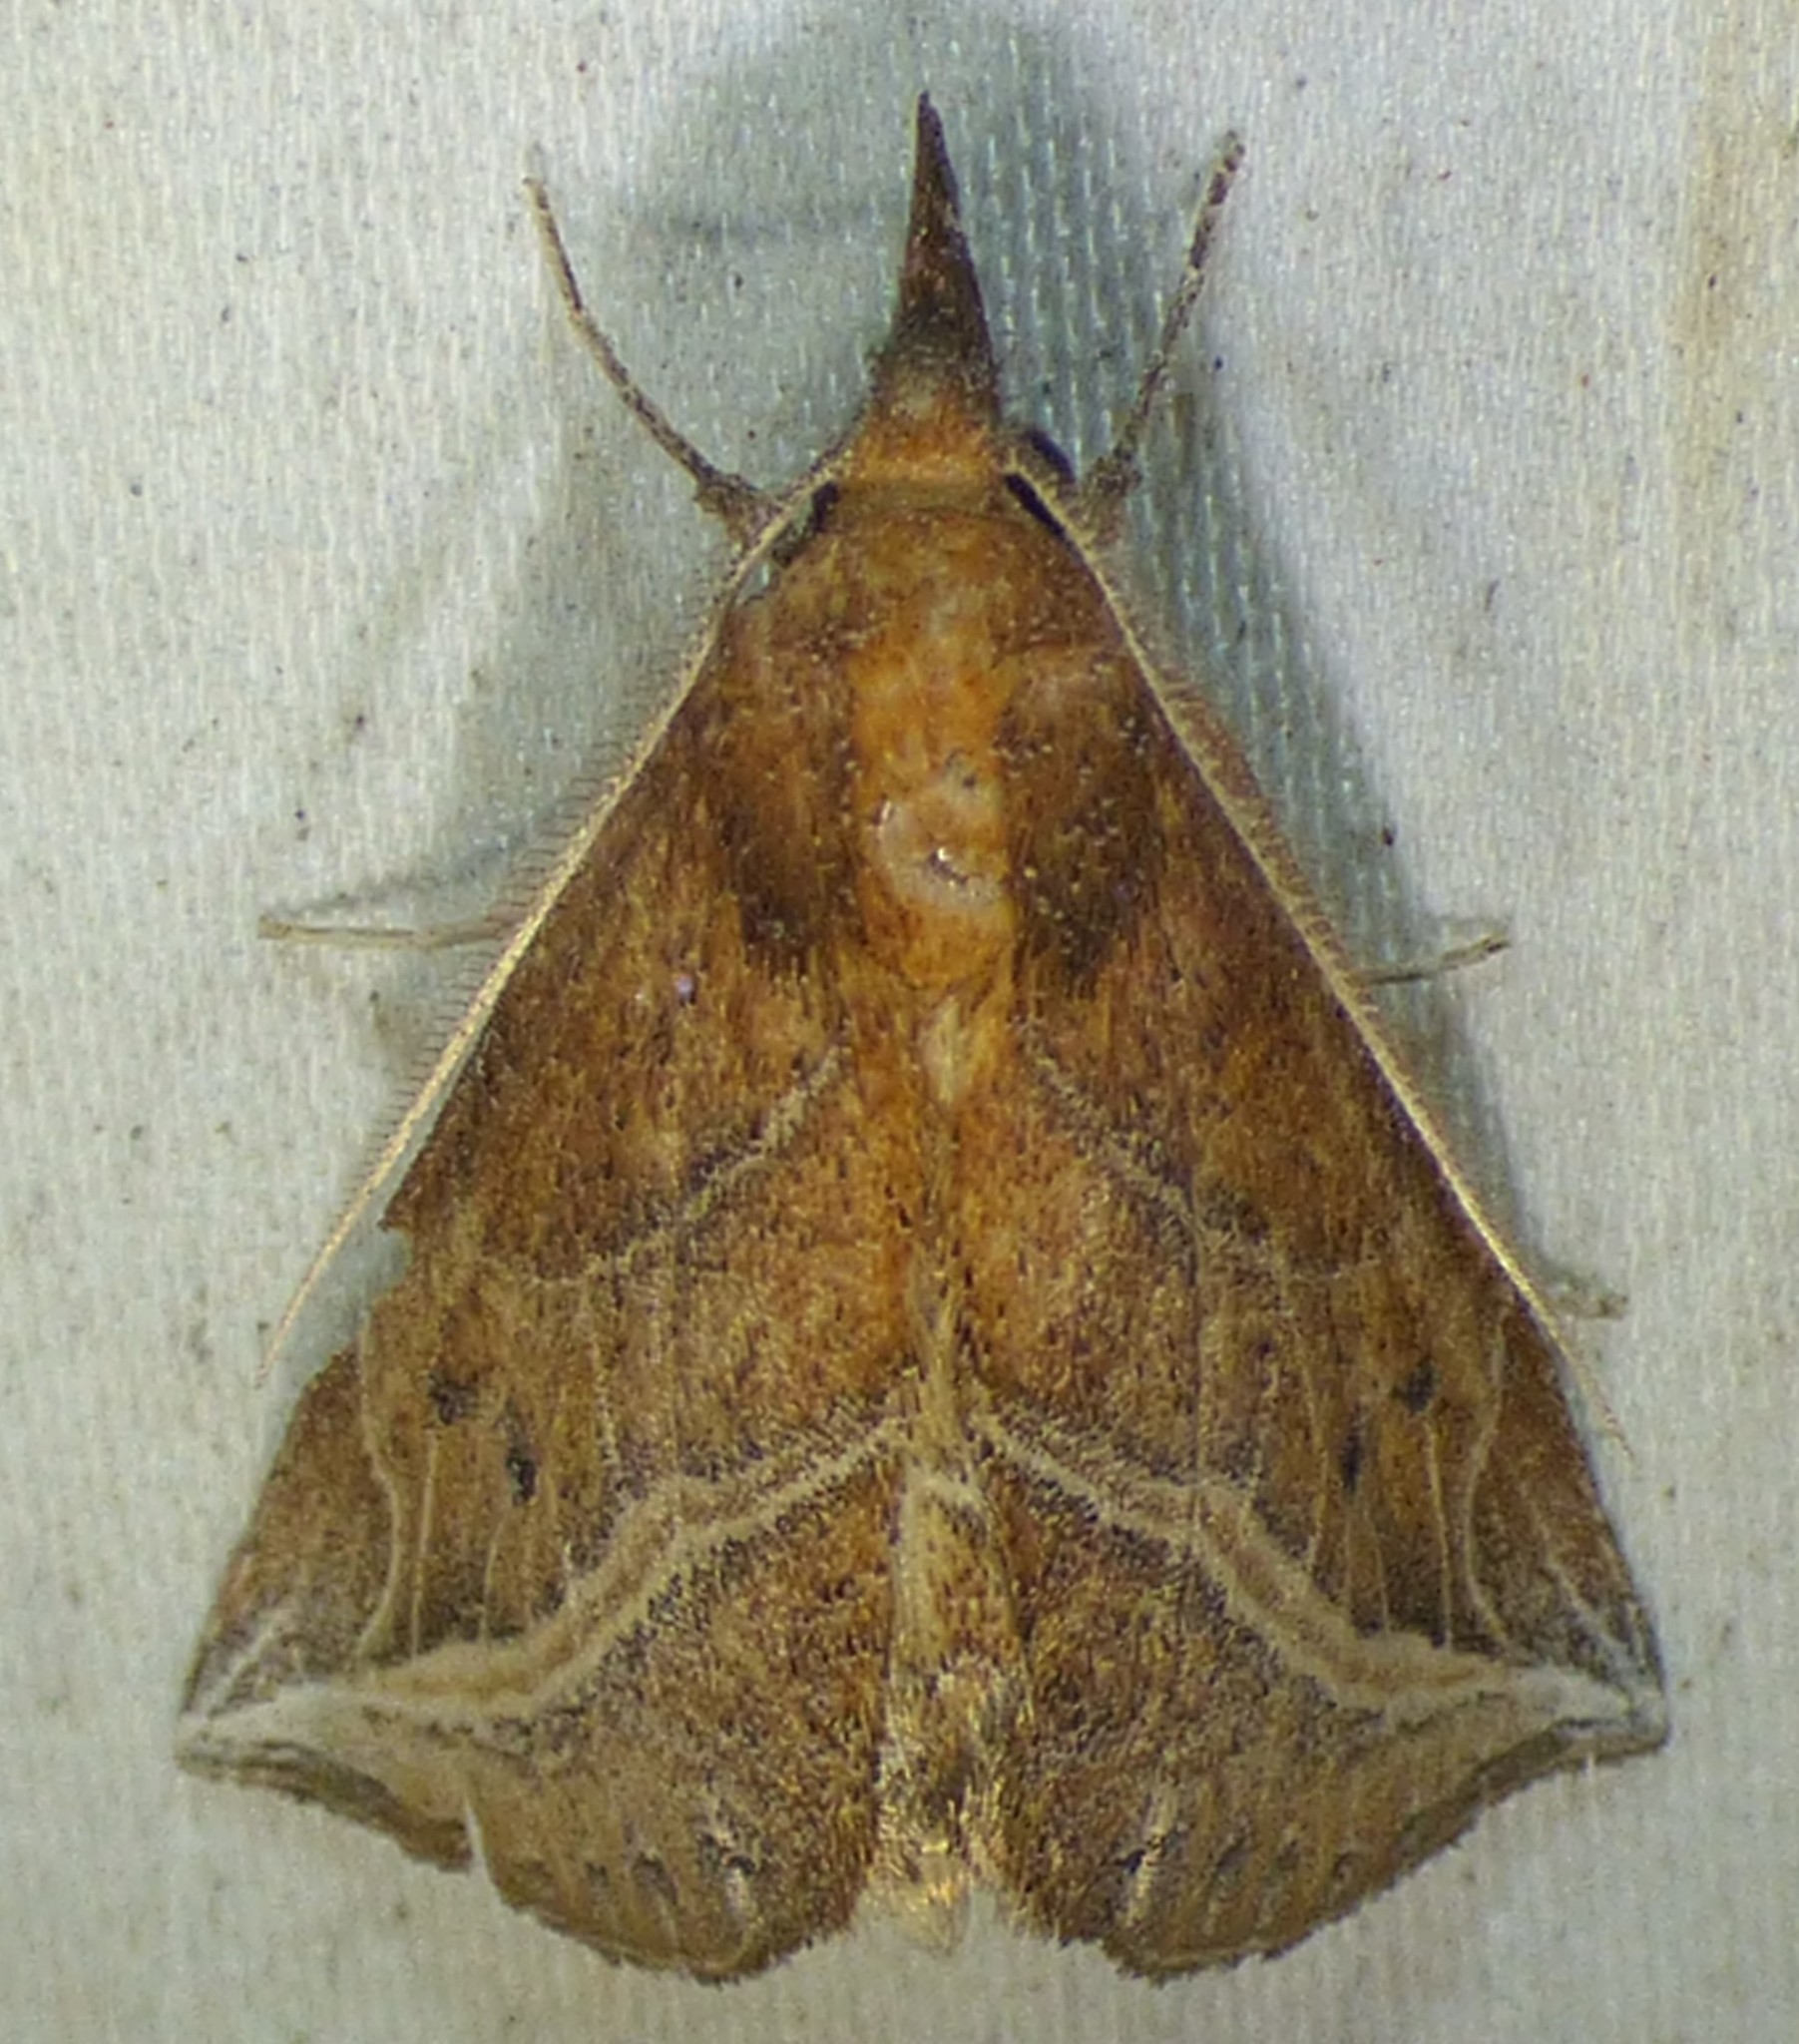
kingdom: Animalia
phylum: Arthropoda
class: Insecta
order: Lepidoptera
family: Erebidae
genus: Phyprosopus
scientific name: Phyprosopus callitrichoides
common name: Curved-lined owlet
